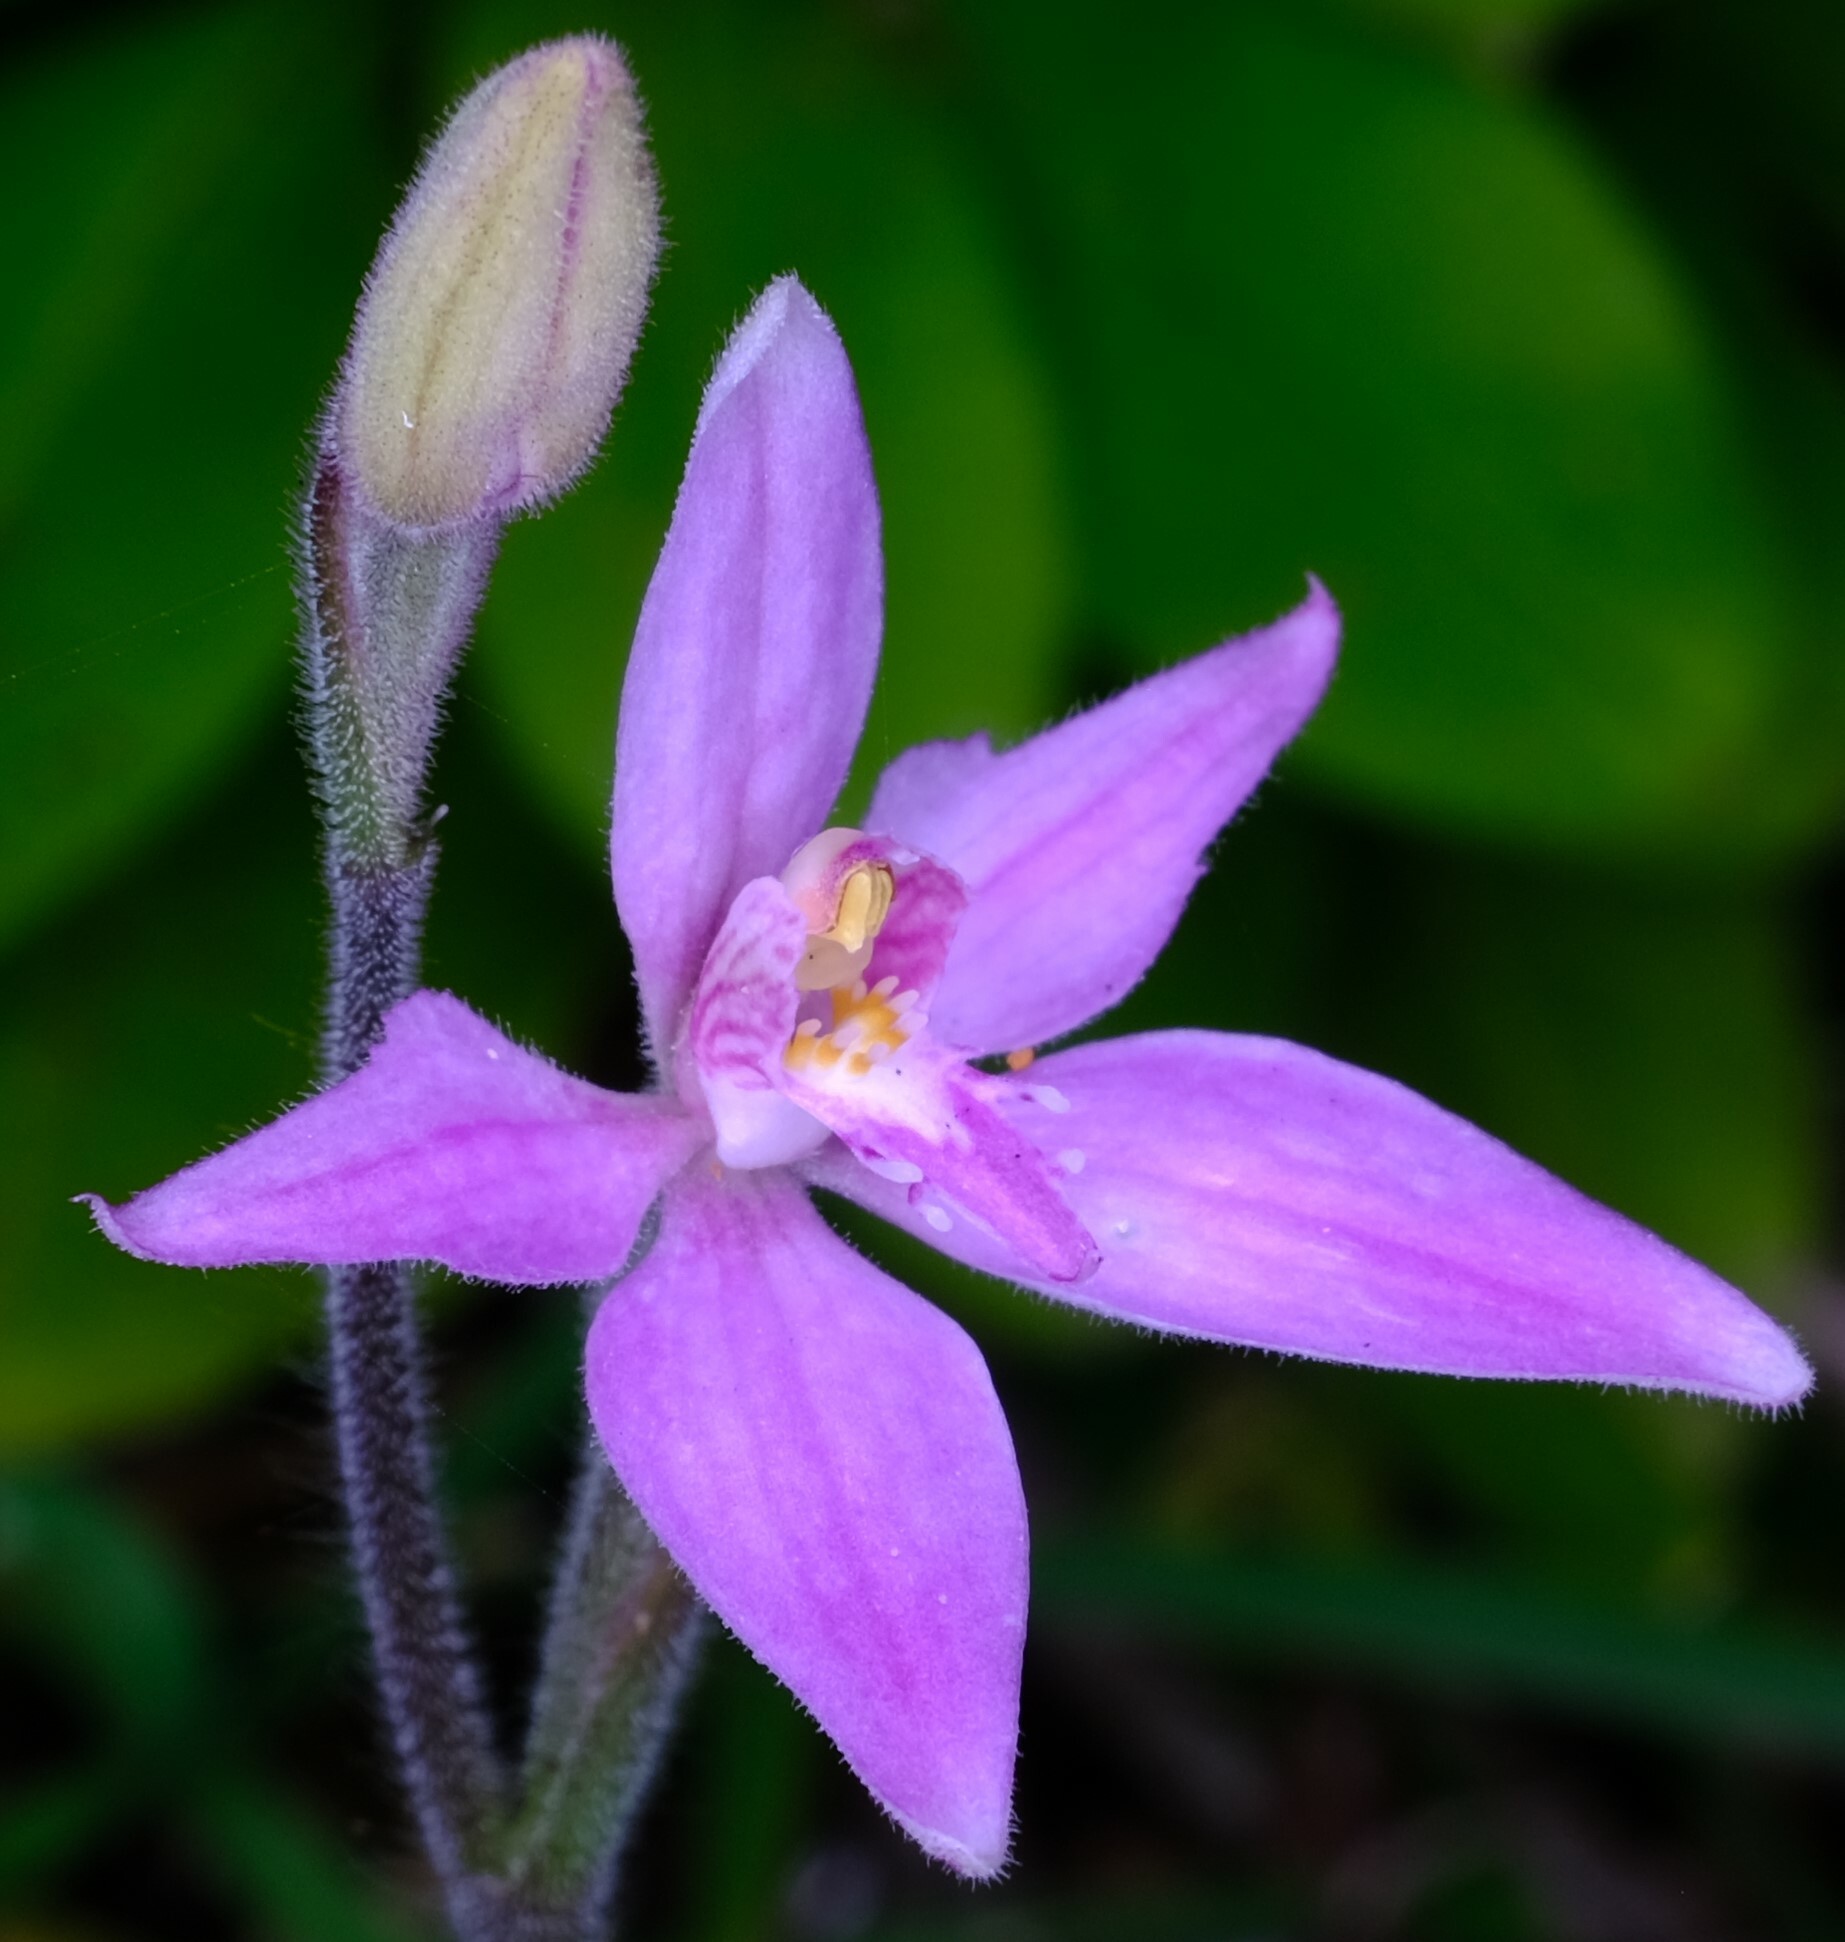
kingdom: Plantae
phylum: Tracheophyta
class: Liliopsida
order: Asparagales
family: Orchidaceae
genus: Caladenia
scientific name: Caladenia latifolia
